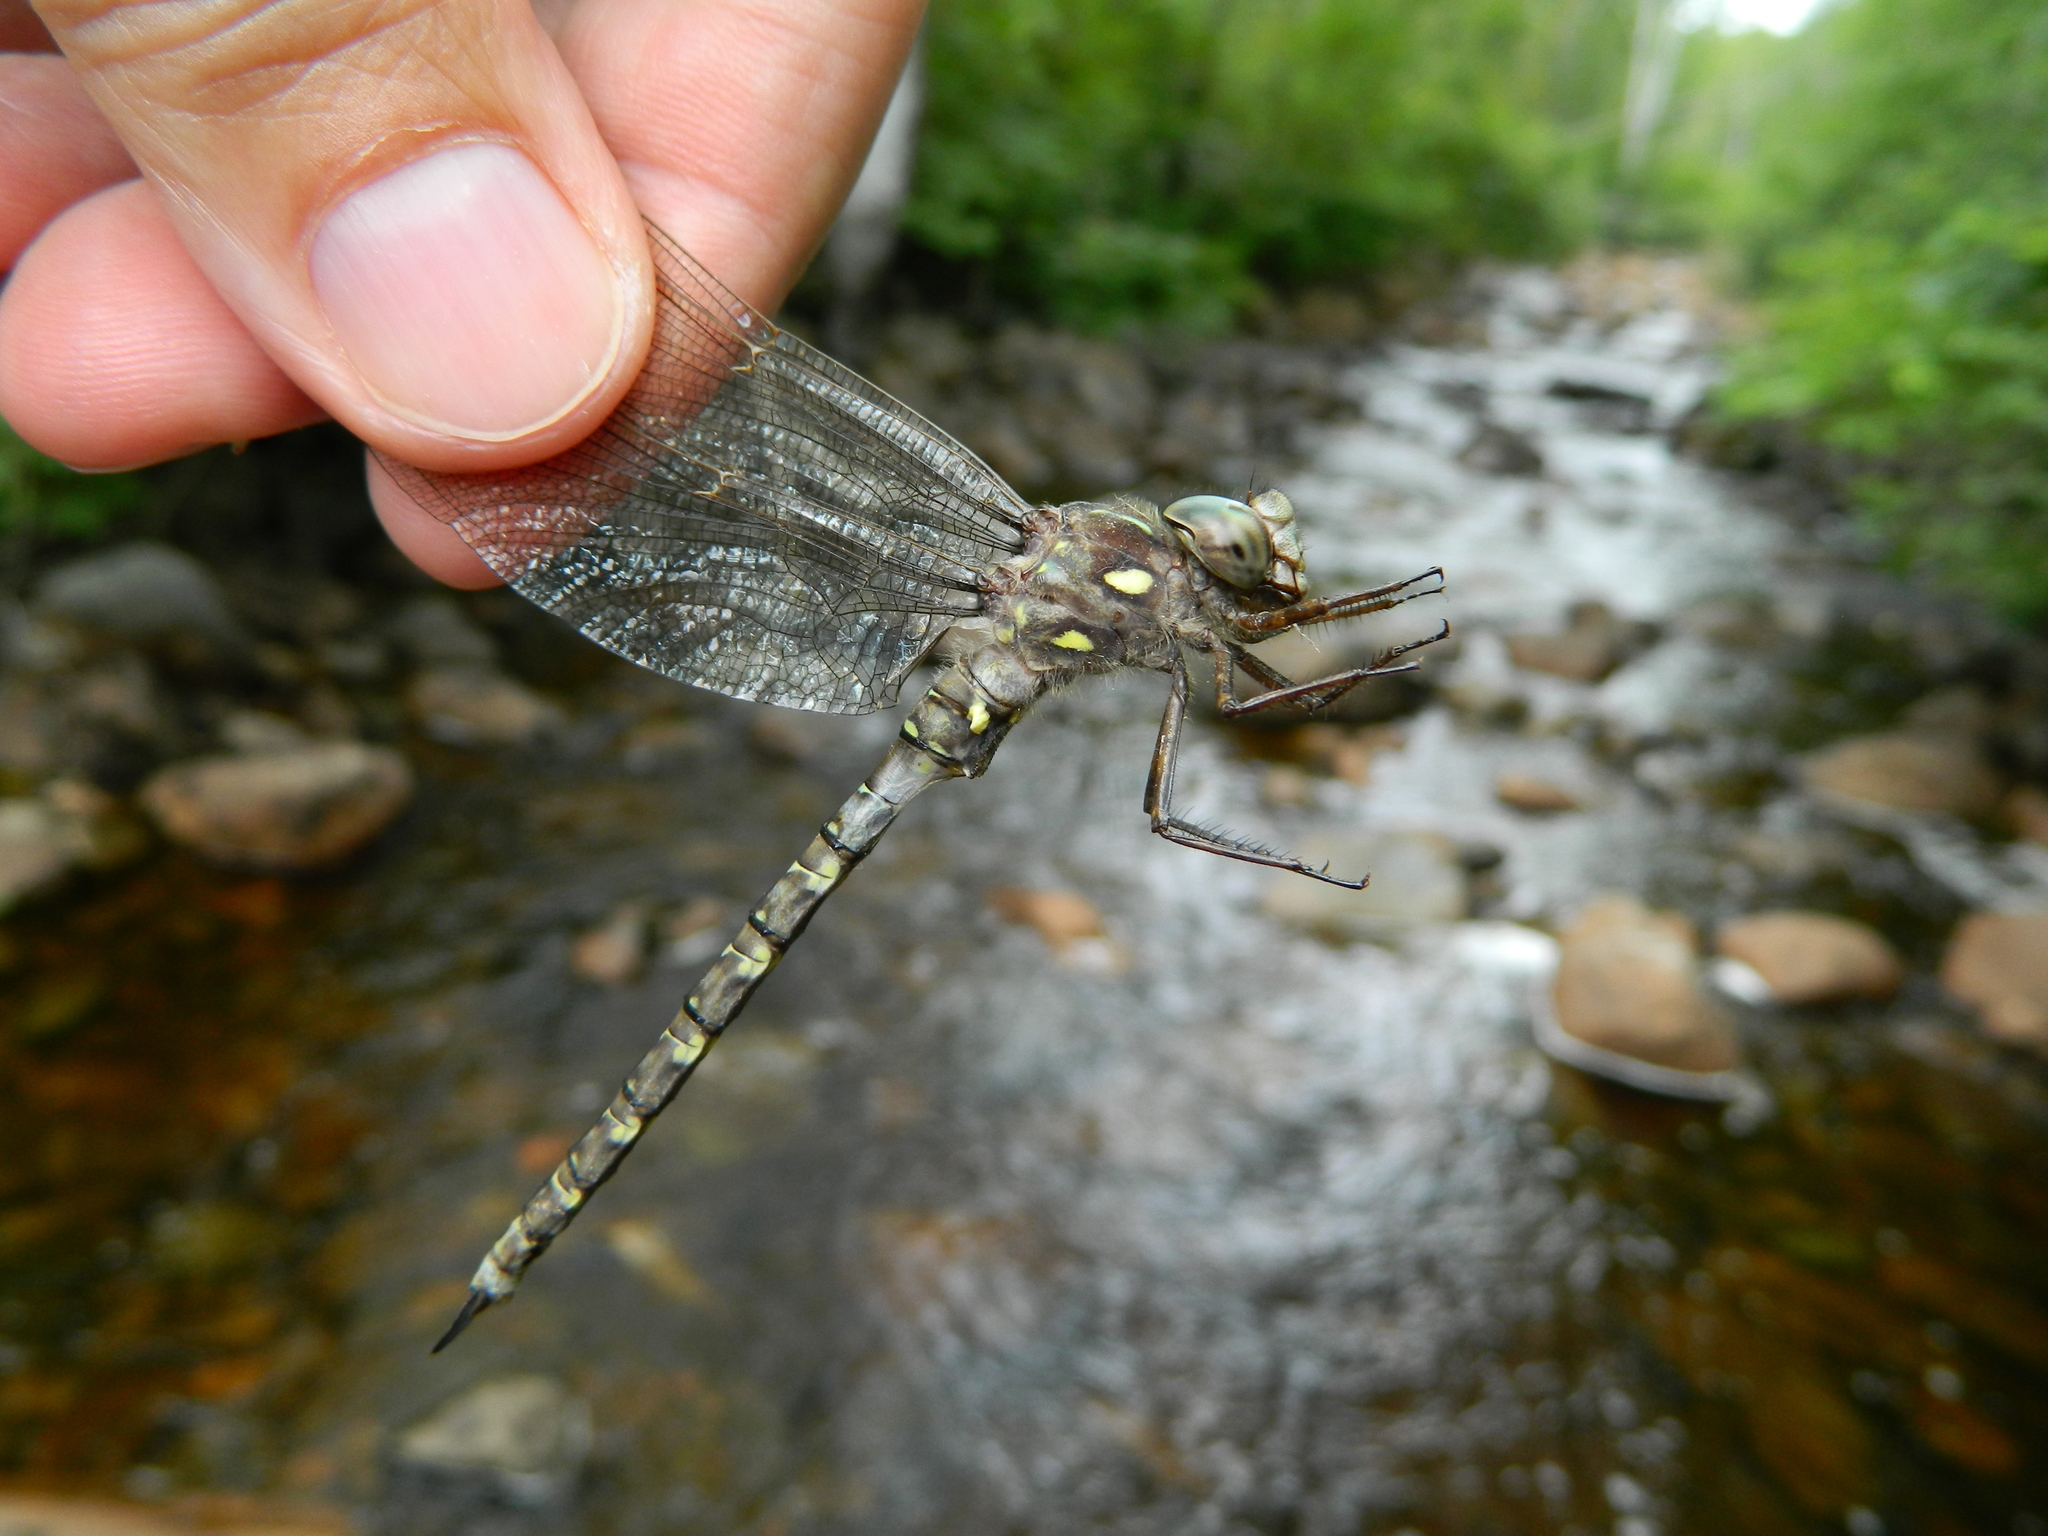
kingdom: Animalia
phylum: Arthropoda
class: Insecta
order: Odonata
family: Aeshnidae
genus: Boyeria
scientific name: Boyeria grafiana
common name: Ocellated darner
